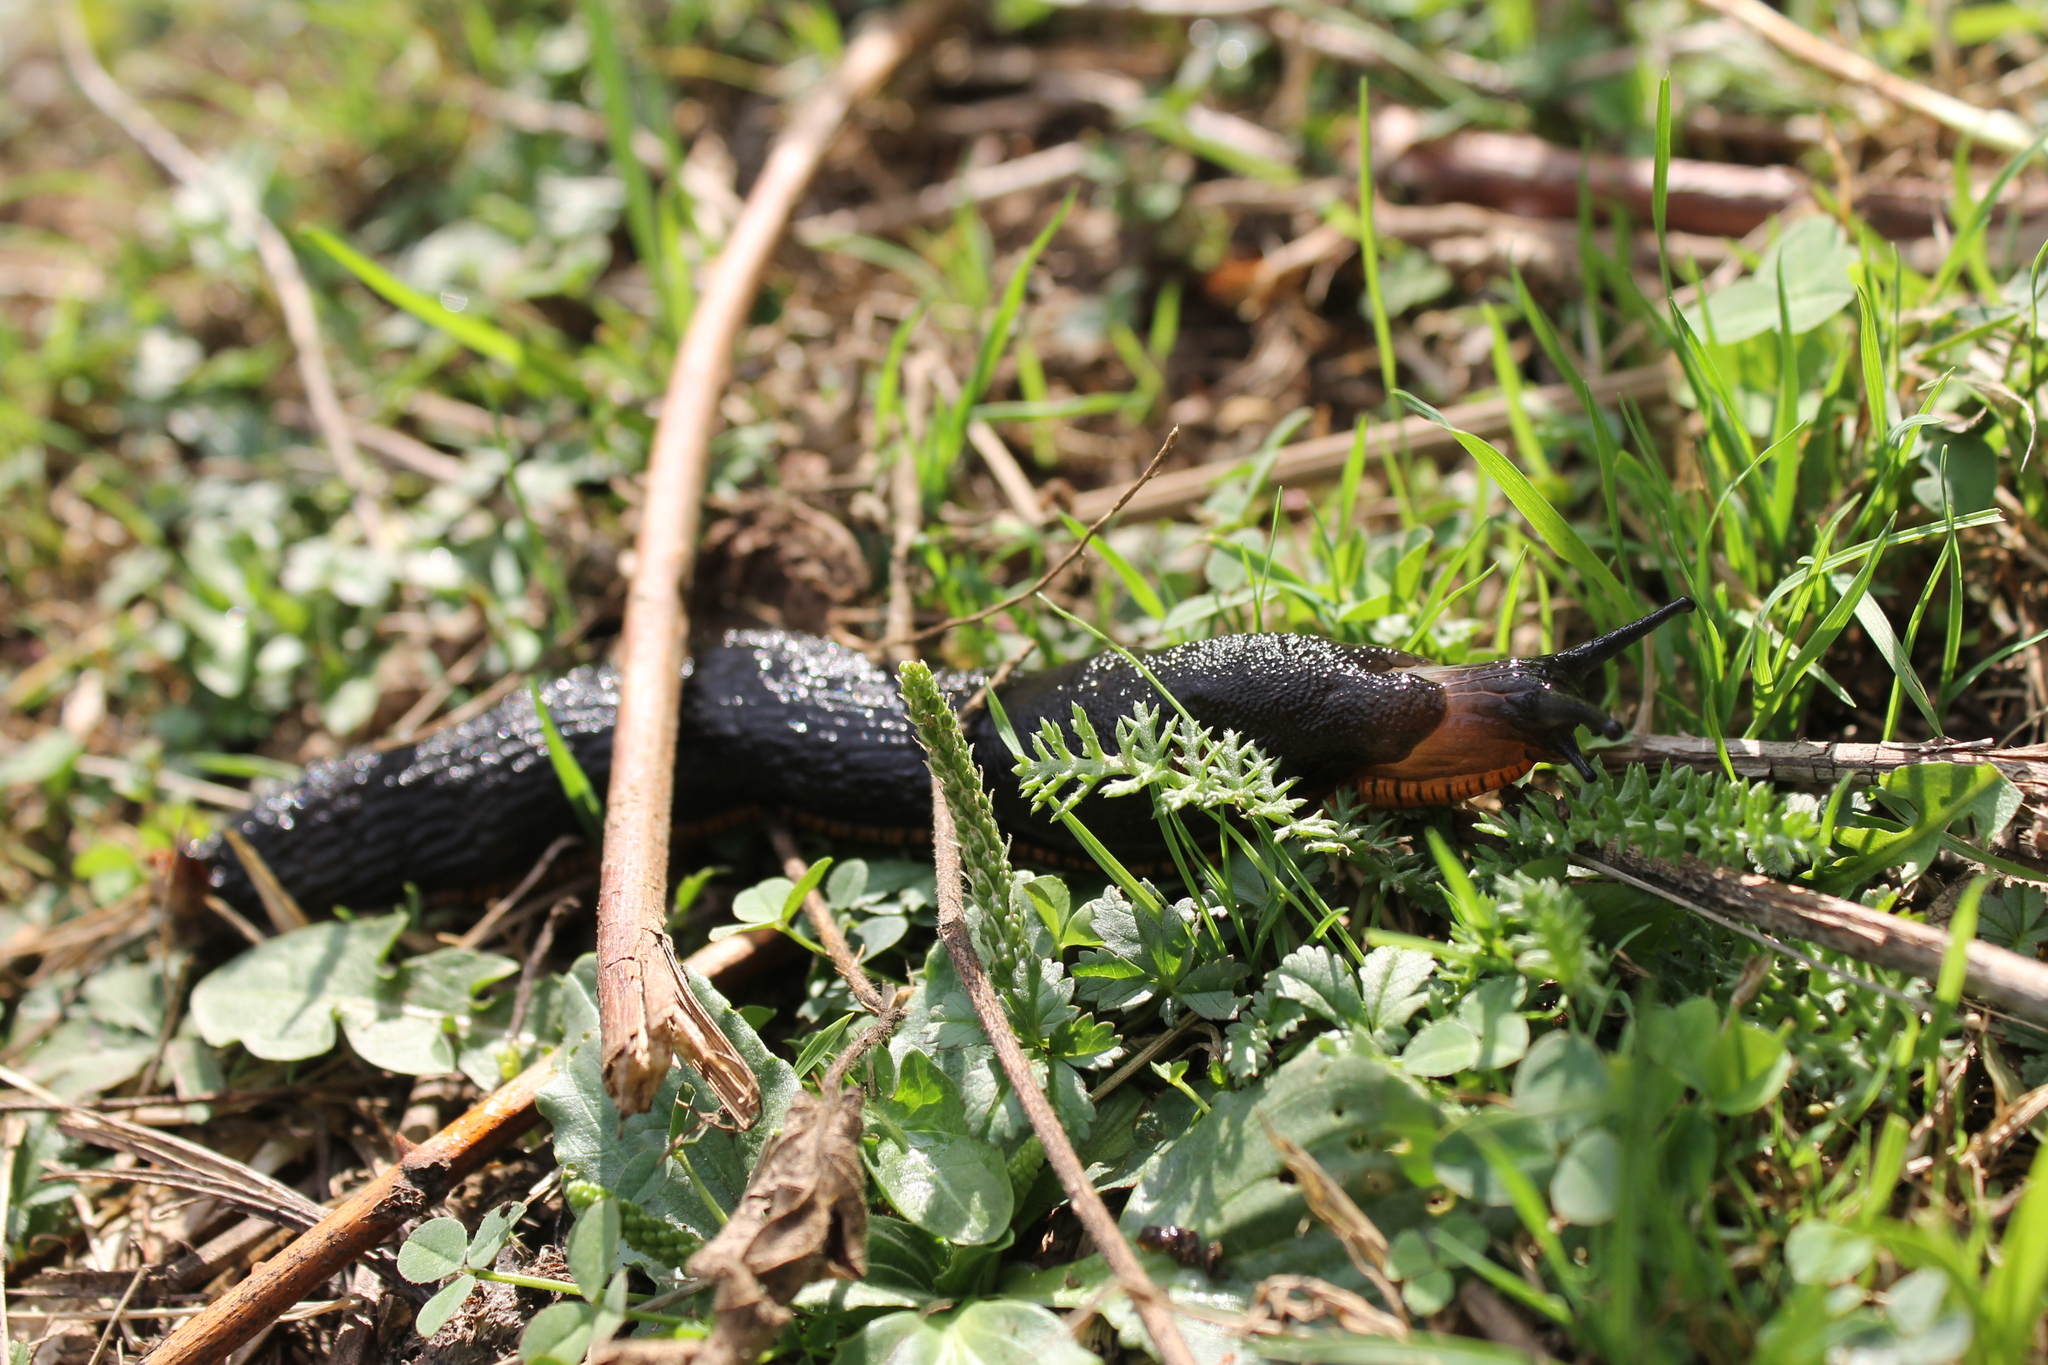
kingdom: Animalia
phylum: Mollusca
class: Gastropoda
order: Stylommatophora
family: Arionidae
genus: Arion
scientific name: Arion ater
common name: Black arion
